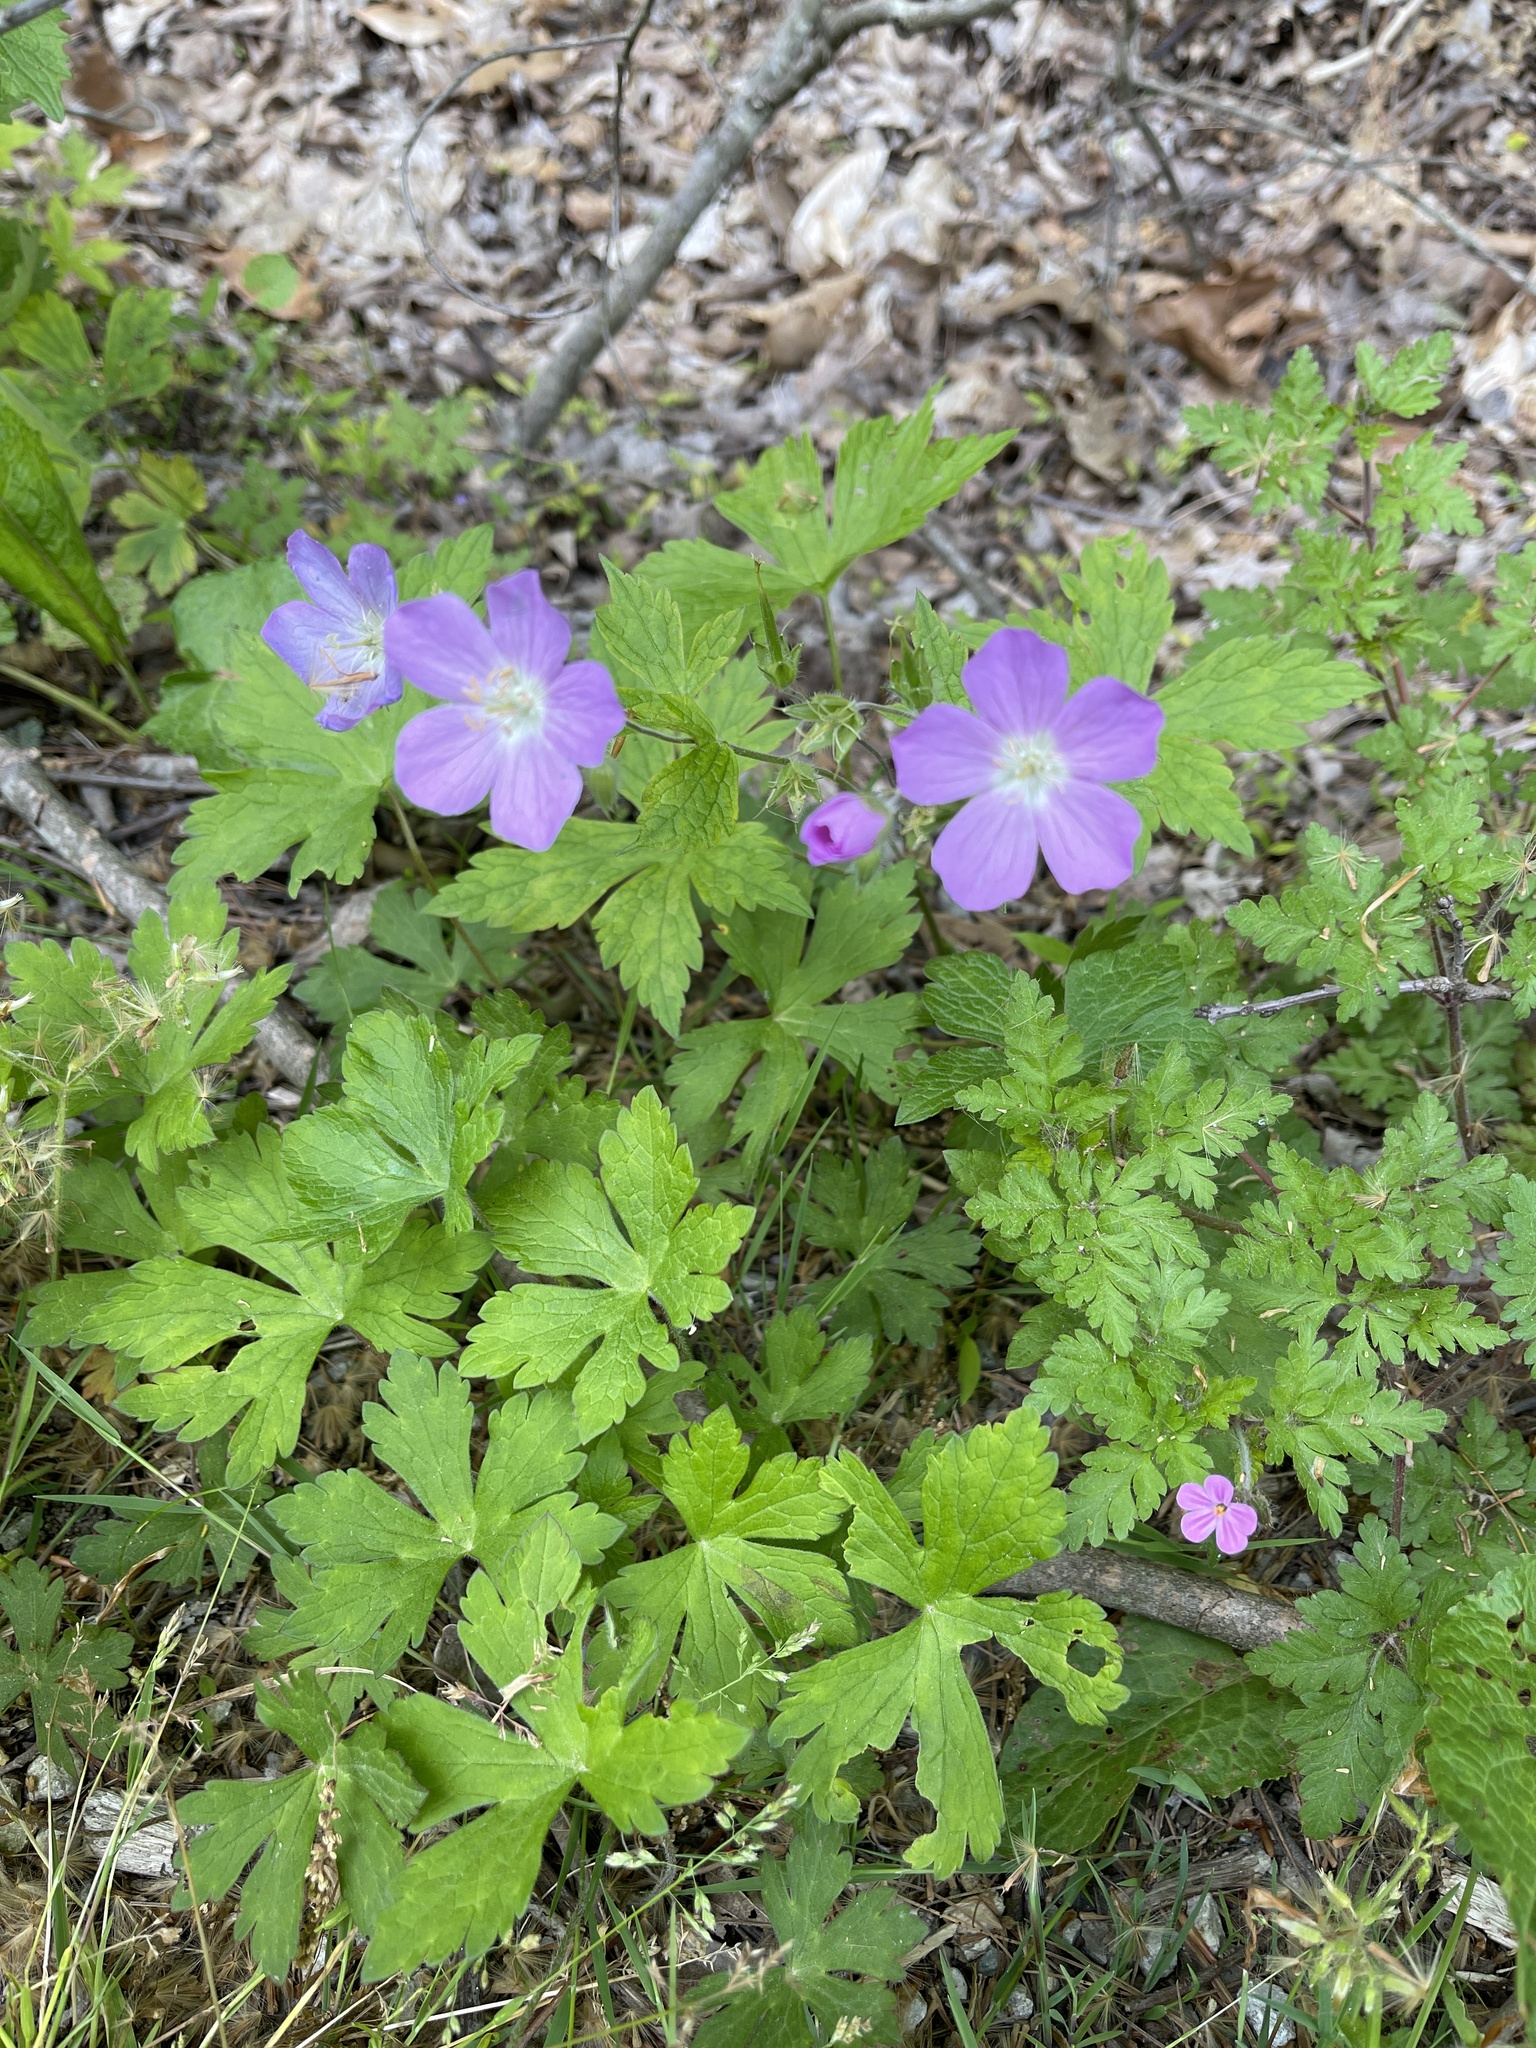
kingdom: Plantae
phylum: Tracheophyta
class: Magnoliopsida
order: Geraniales
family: Geraniaceae
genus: Geranium
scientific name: Geranium maculatum
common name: Spotted geranium
